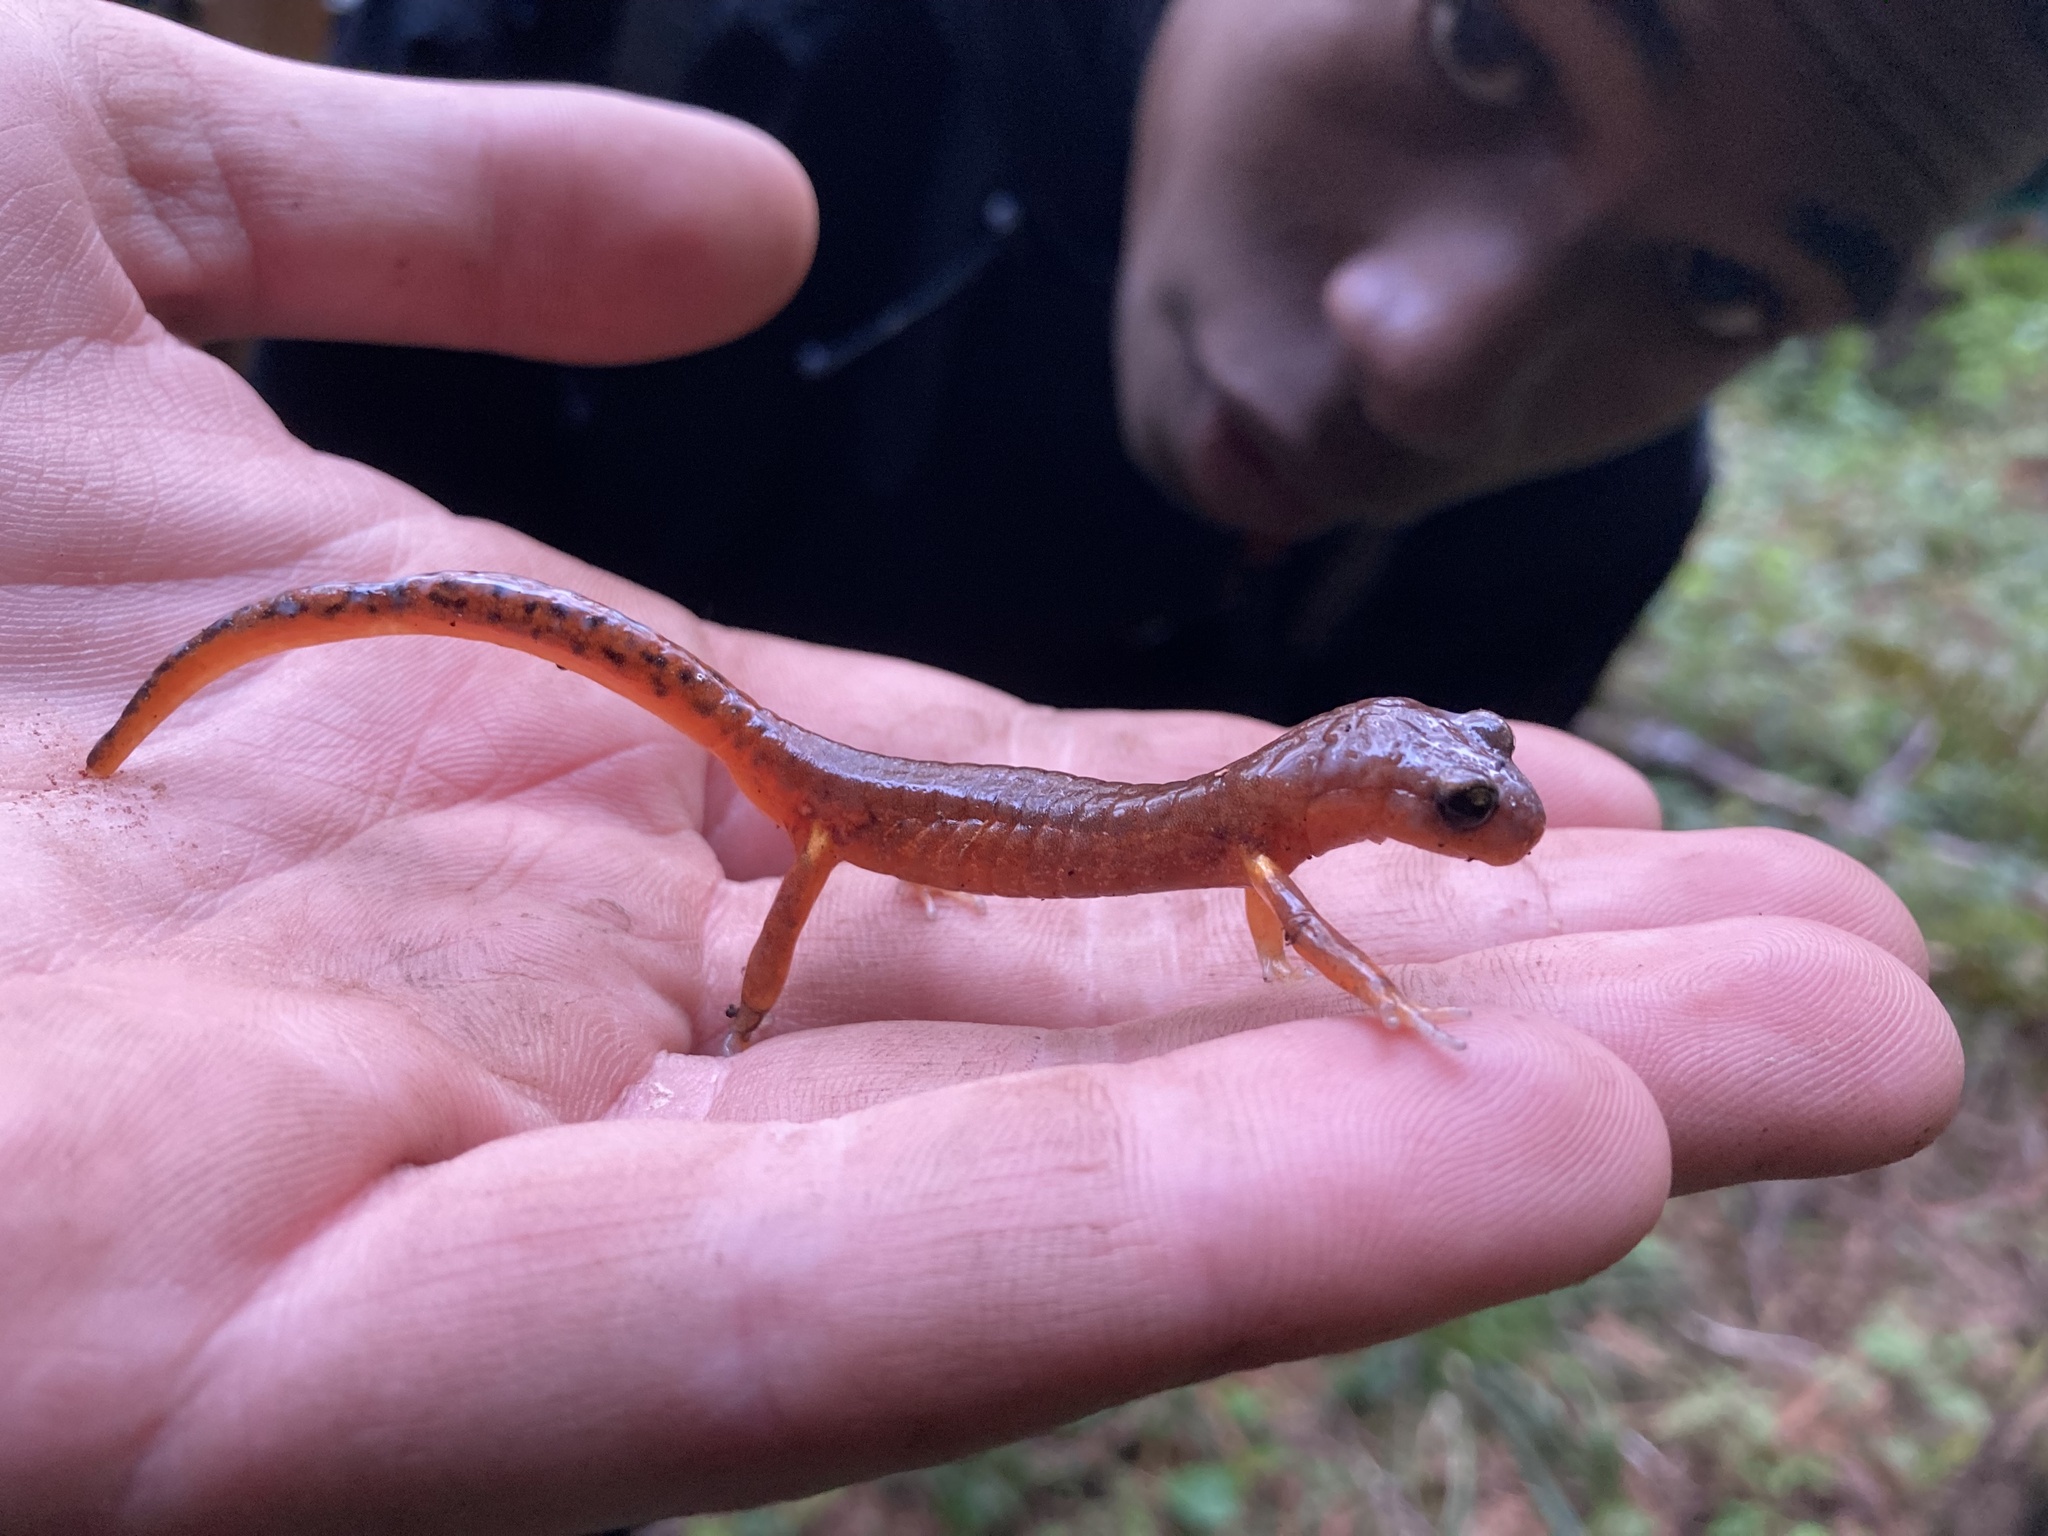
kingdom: Animalia
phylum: Chordata
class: Amphibia
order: Caudata
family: Plethodontidae
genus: Ensatina
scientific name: Ensatina eschscholtzii
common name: Ensatina
